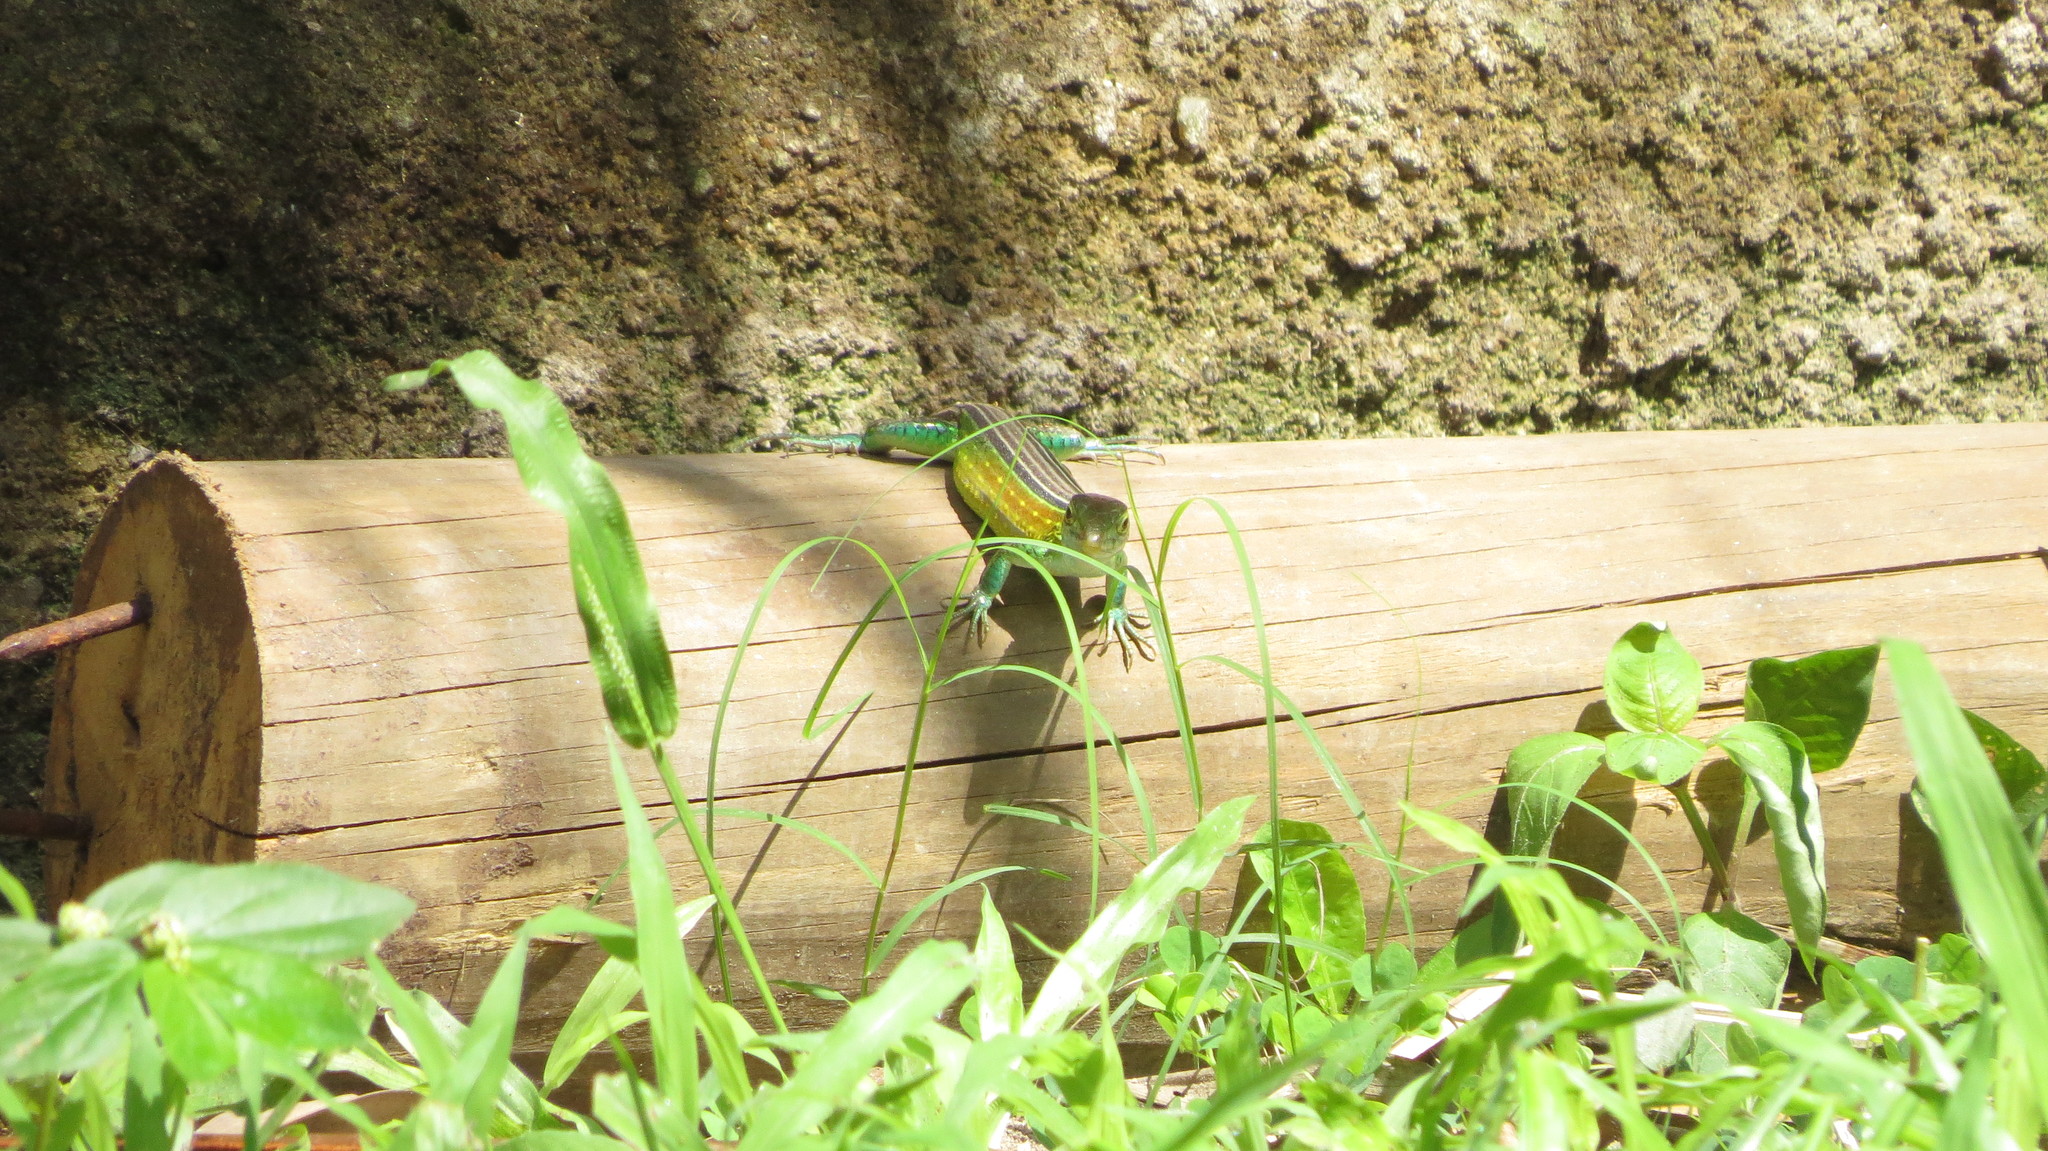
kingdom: Animalia
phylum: Chordata
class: Squamata
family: Teiidae
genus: Cnemidophorus
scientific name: Cnemidophorus gaigei
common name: Gaige’s rainbow lizard
